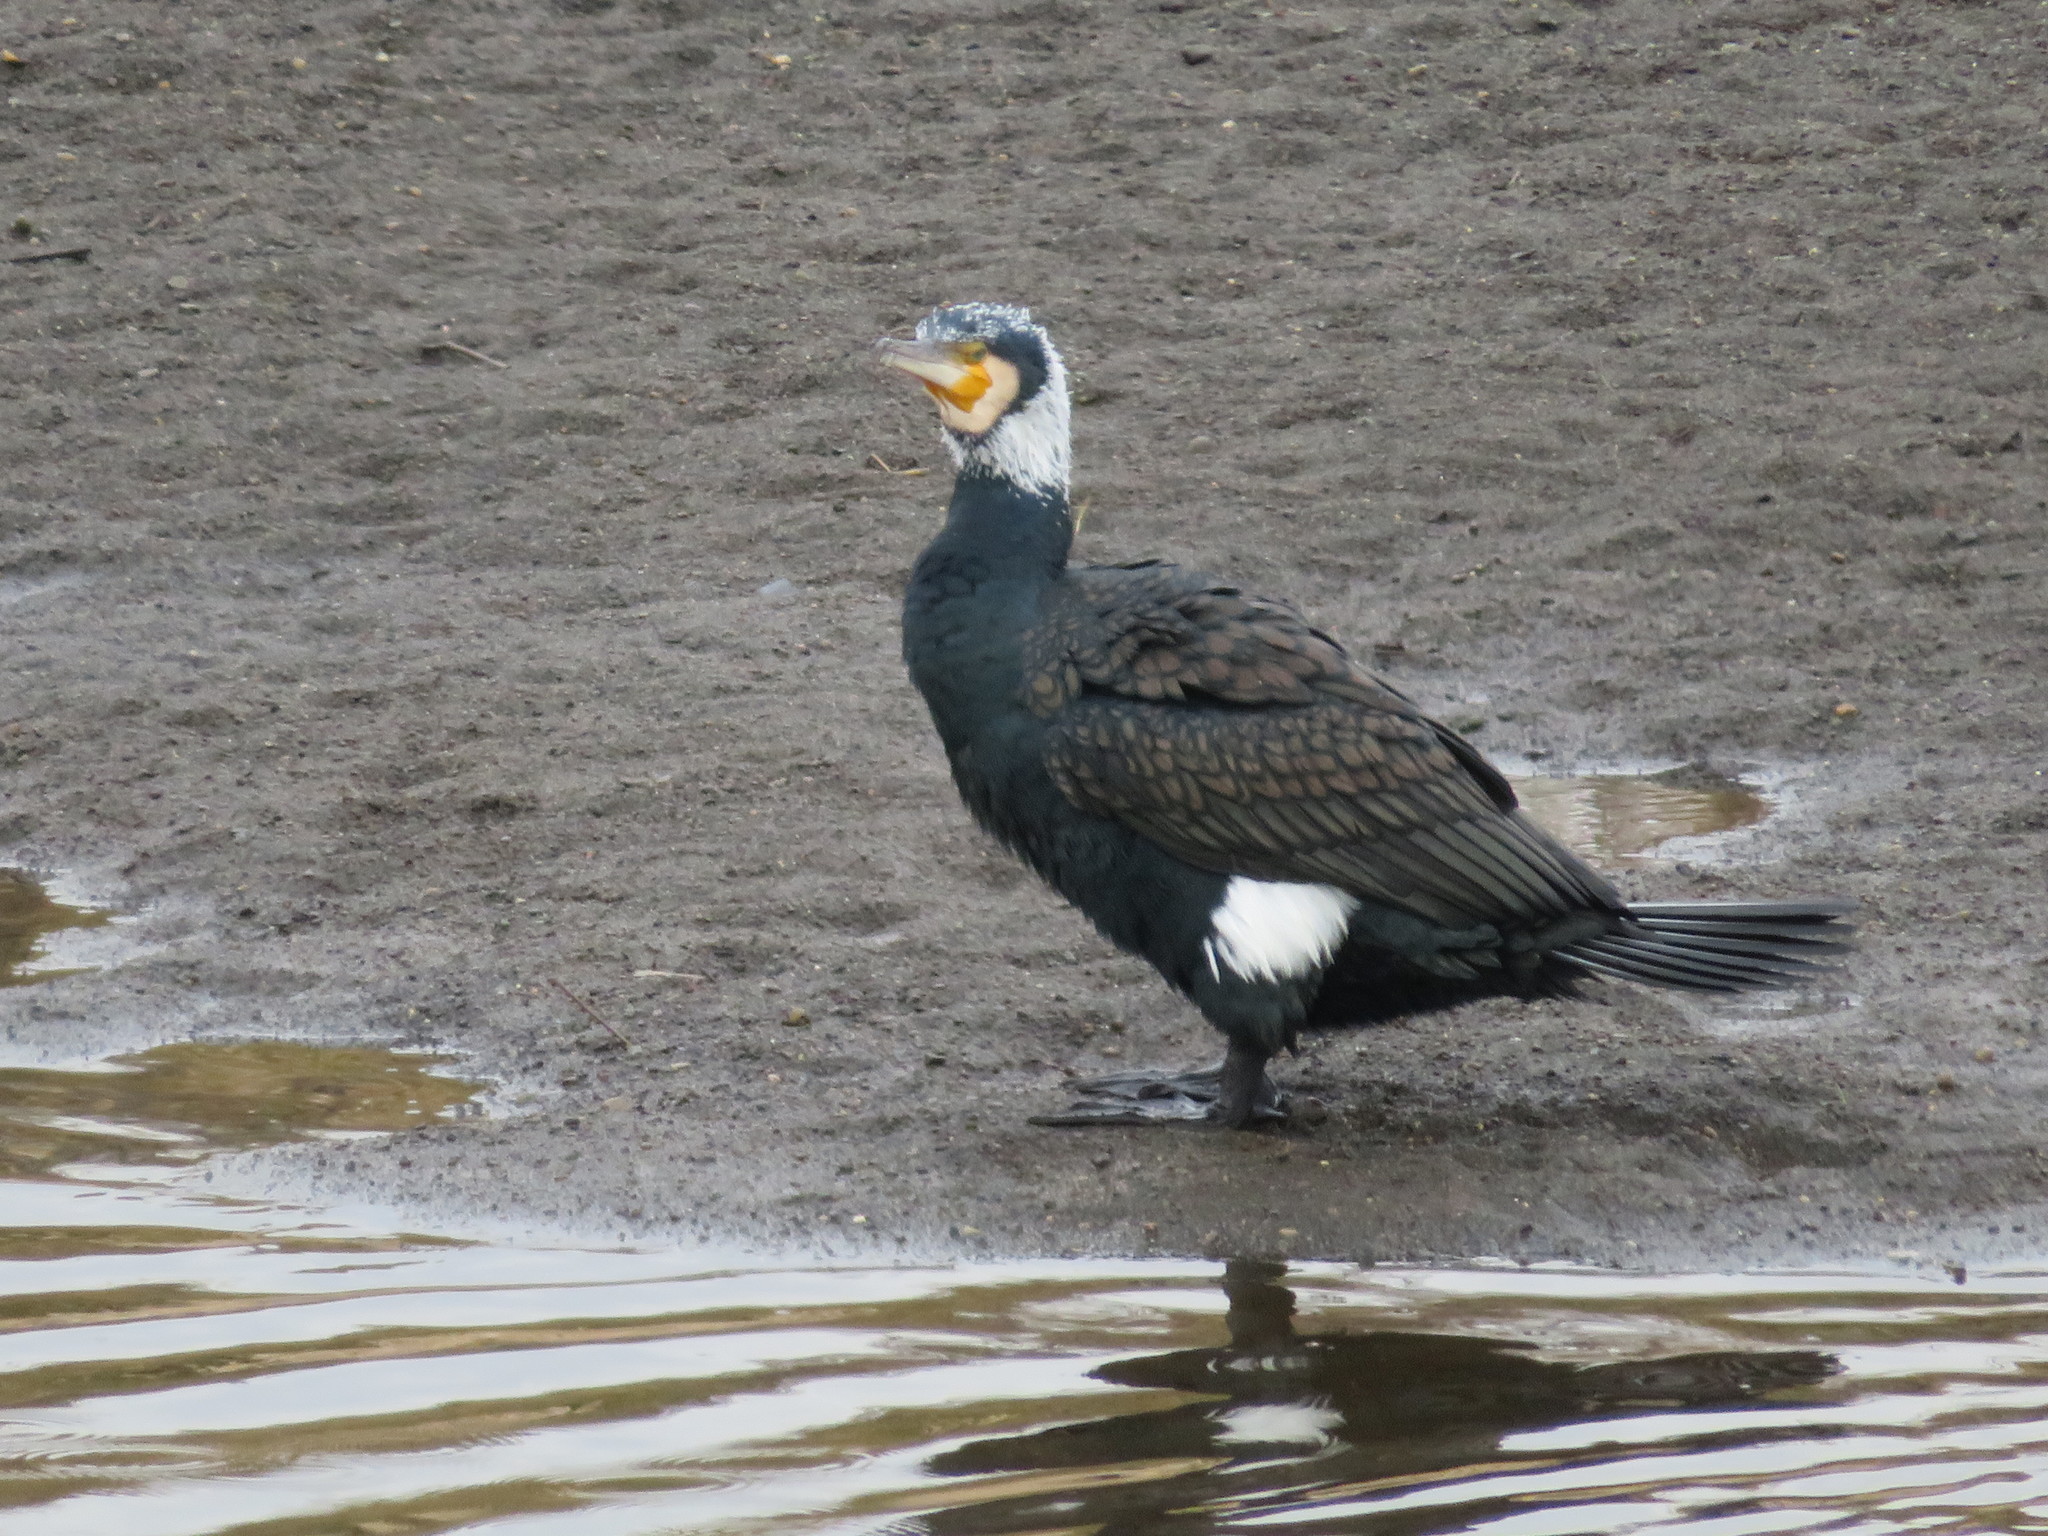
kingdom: Animalia
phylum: Chordata
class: Aves
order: Suliformes
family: Phalacrocoracidae
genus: Phalacrocorax
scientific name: Phalacrocorax carbo
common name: Great cormorant
